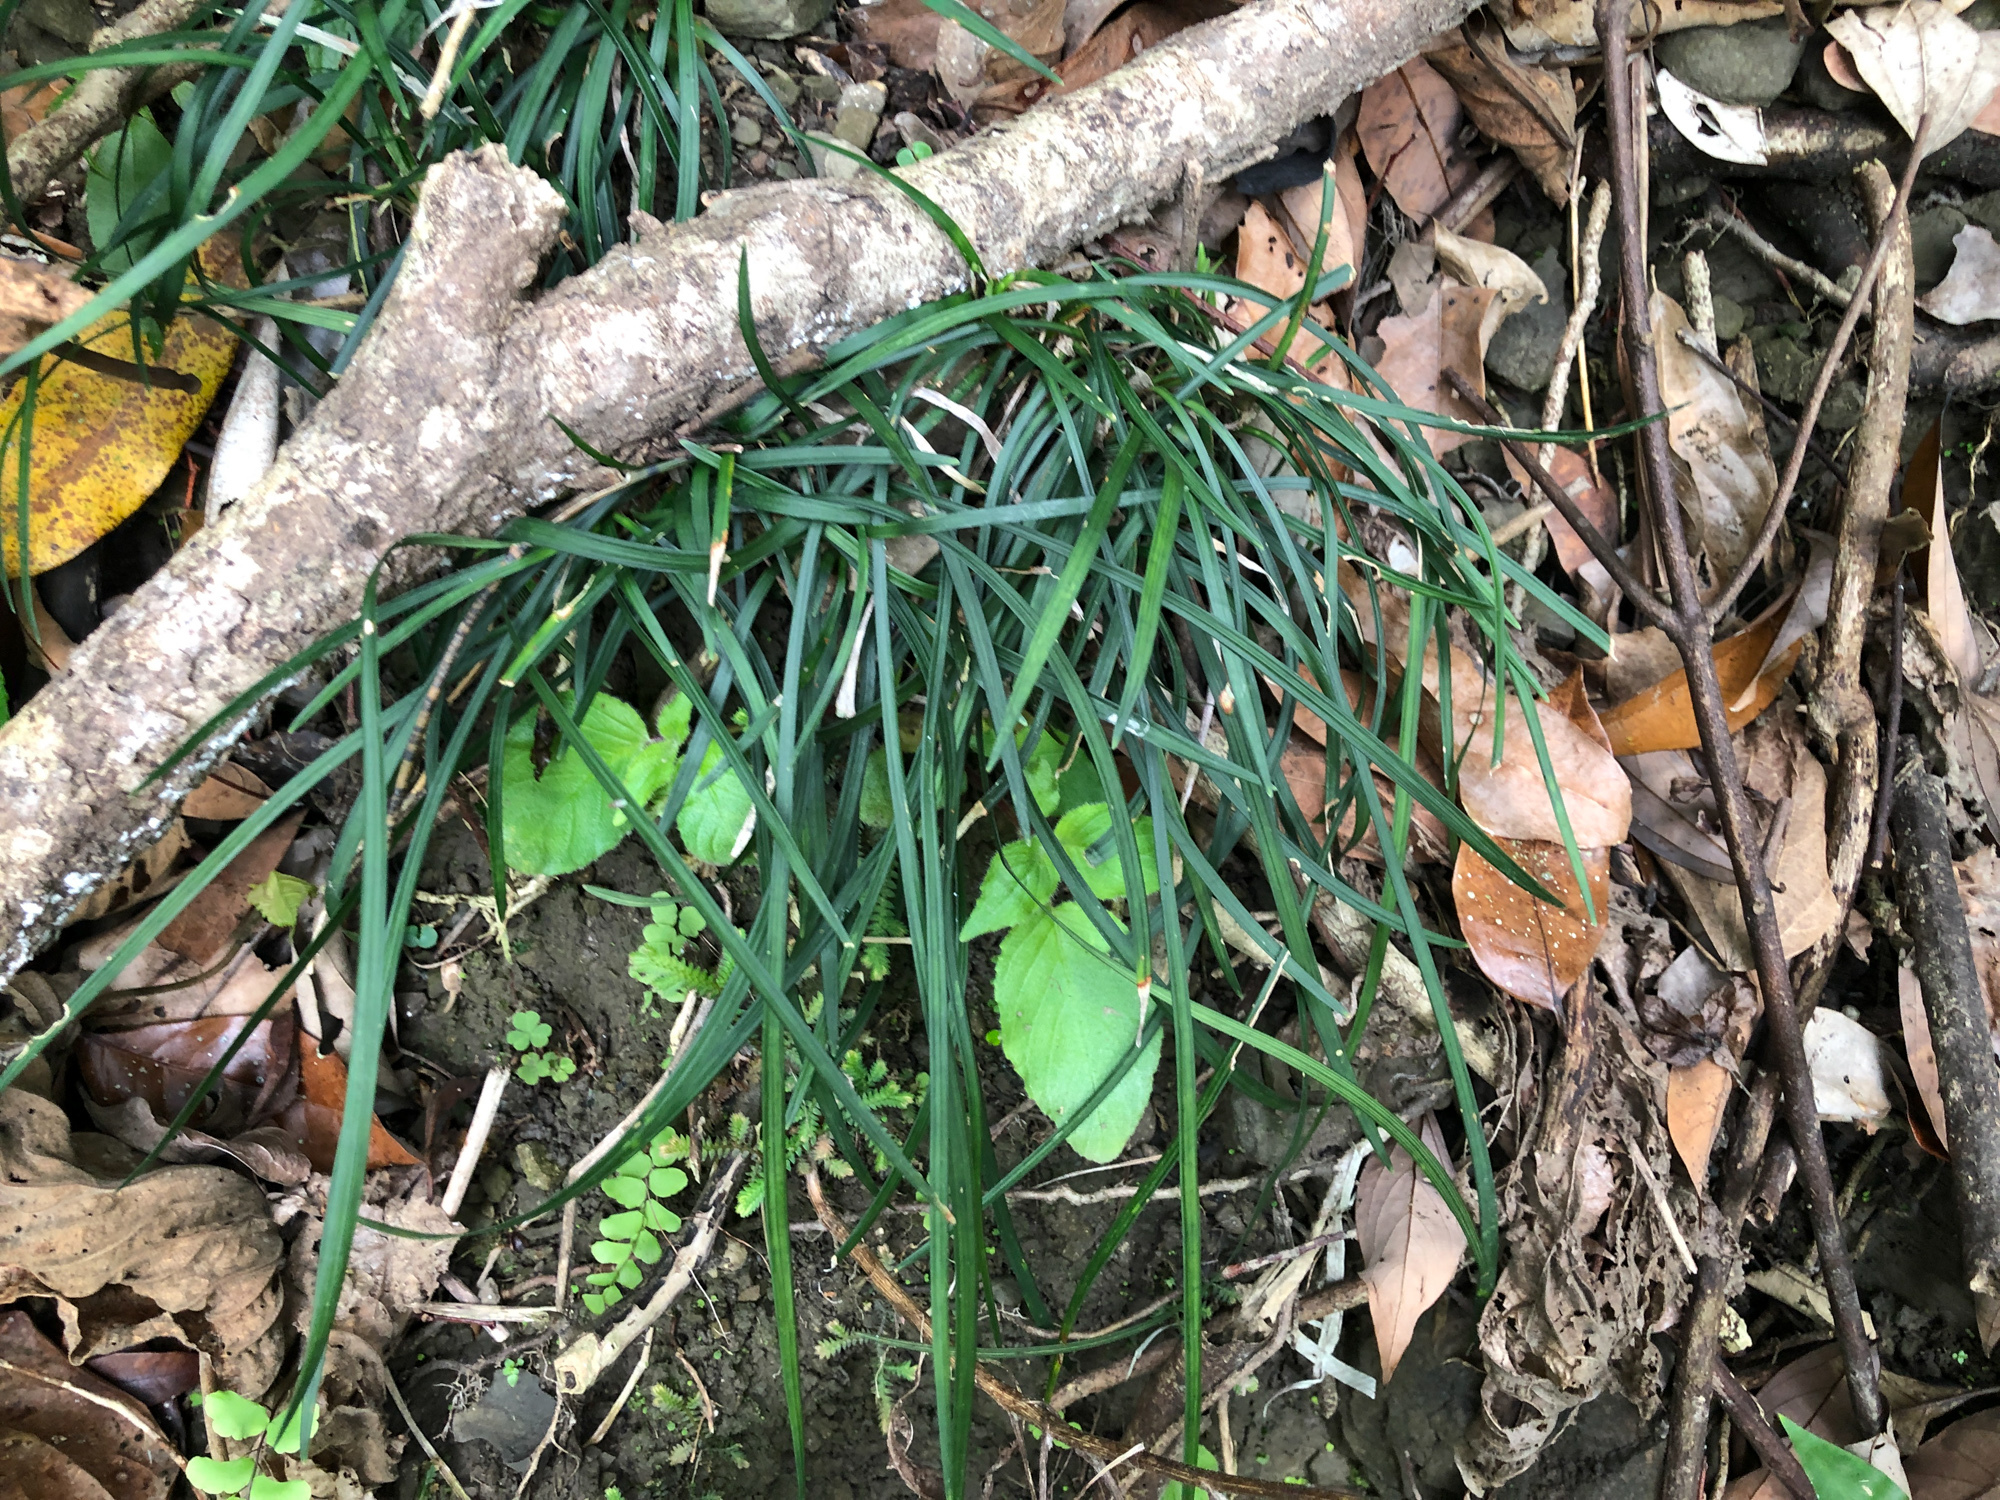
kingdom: Plantae
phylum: Tracheophyta
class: Liliopsida
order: Asparagales
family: Asparagaceae
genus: Ophiopogon
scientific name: Ophiopogon reversus
